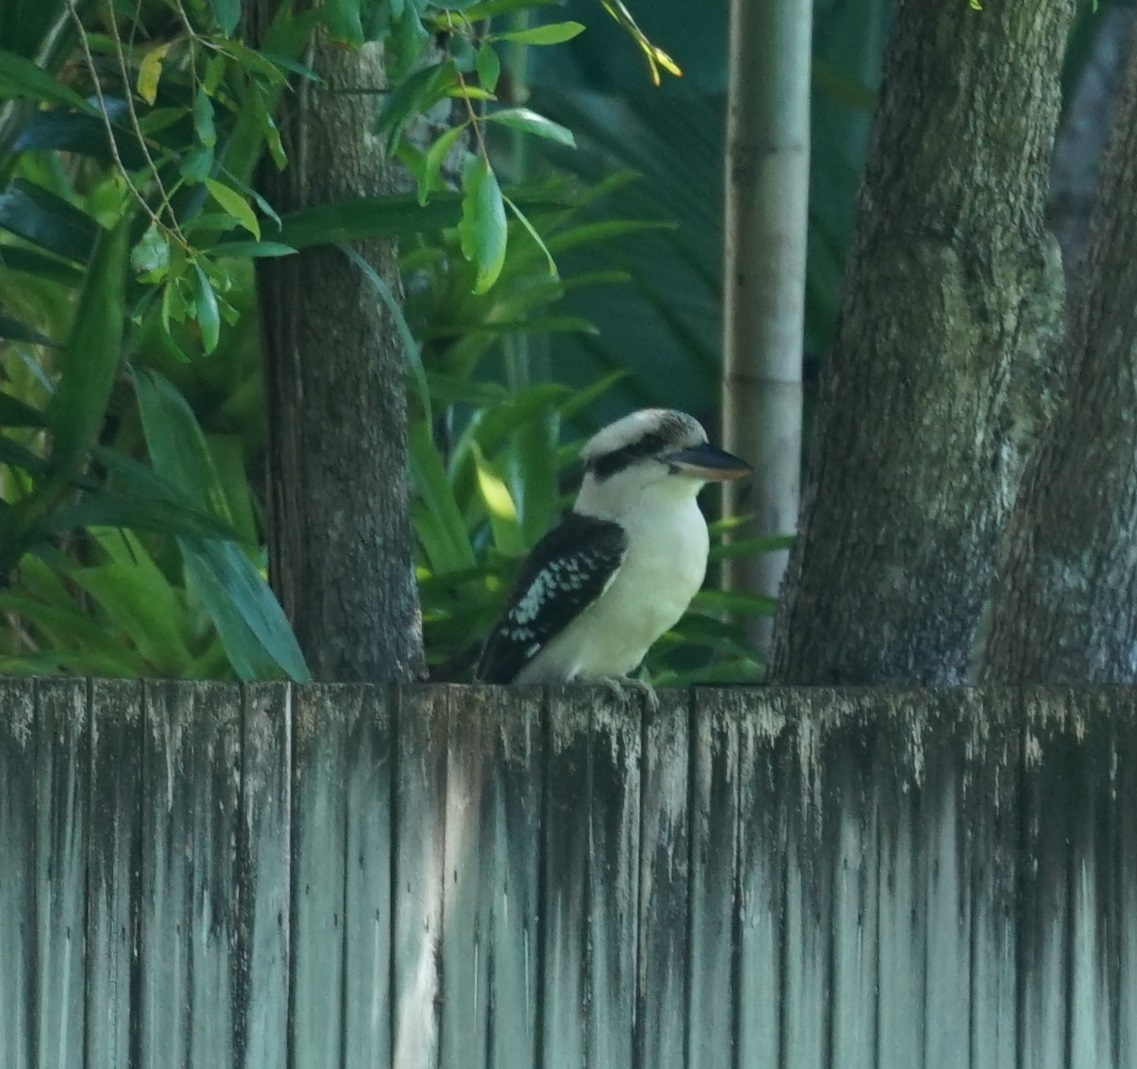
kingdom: Animalia
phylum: Chordata
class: Aves
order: Coraciiformes
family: Alcedinidae
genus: Dacelo
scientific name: Dacelo novaeguineae
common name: Laughing kookaburra
